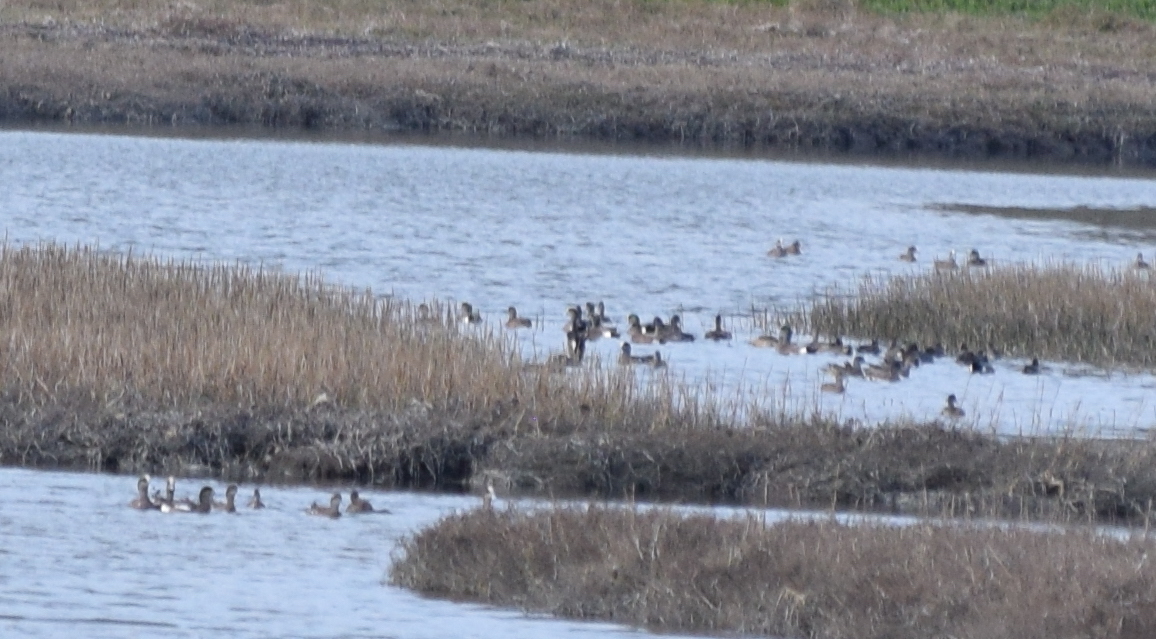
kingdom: Animalia
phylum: Chordata
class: Aves
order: Anseriformes
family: Anatidae
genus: Mareca
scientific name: Mareca americana
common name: American wigeon
